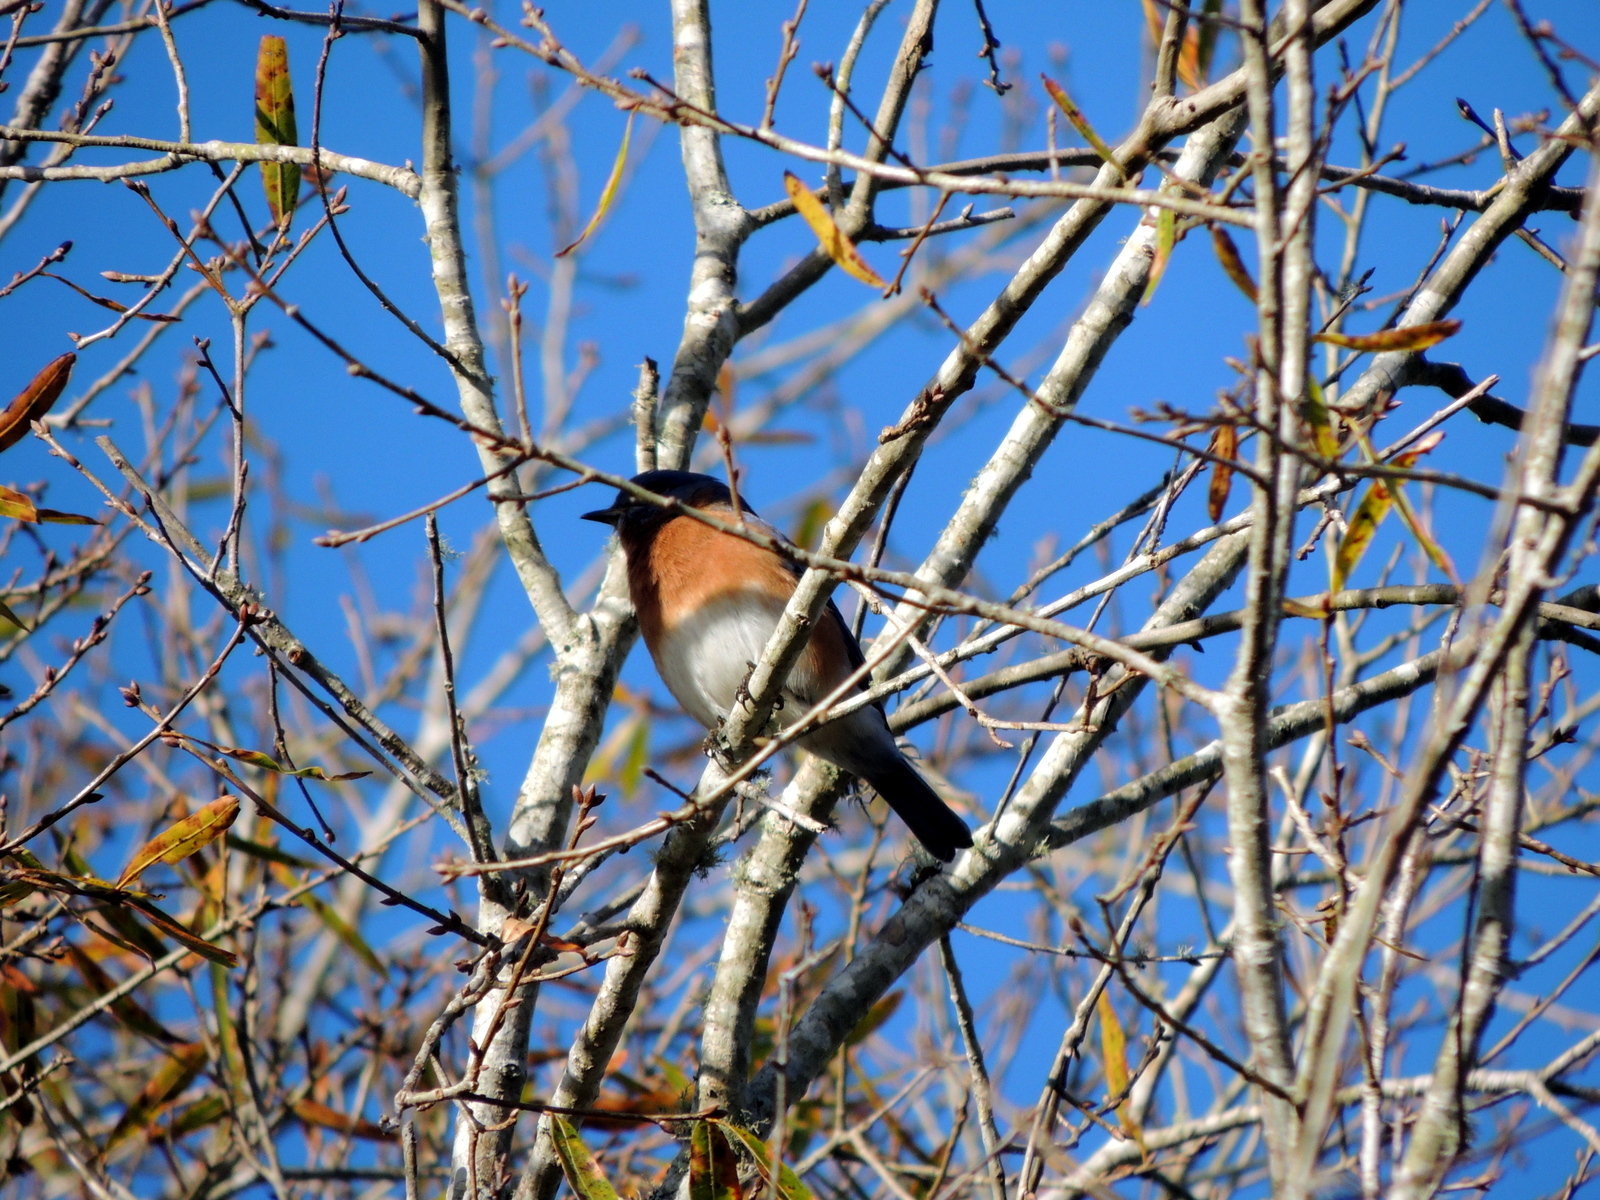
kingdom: Animalia
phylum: Chordata
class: Aves
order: Passeriformes
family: Turdidae
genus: Sialia
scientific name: Sialia sialis
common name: Eastern bluebird
